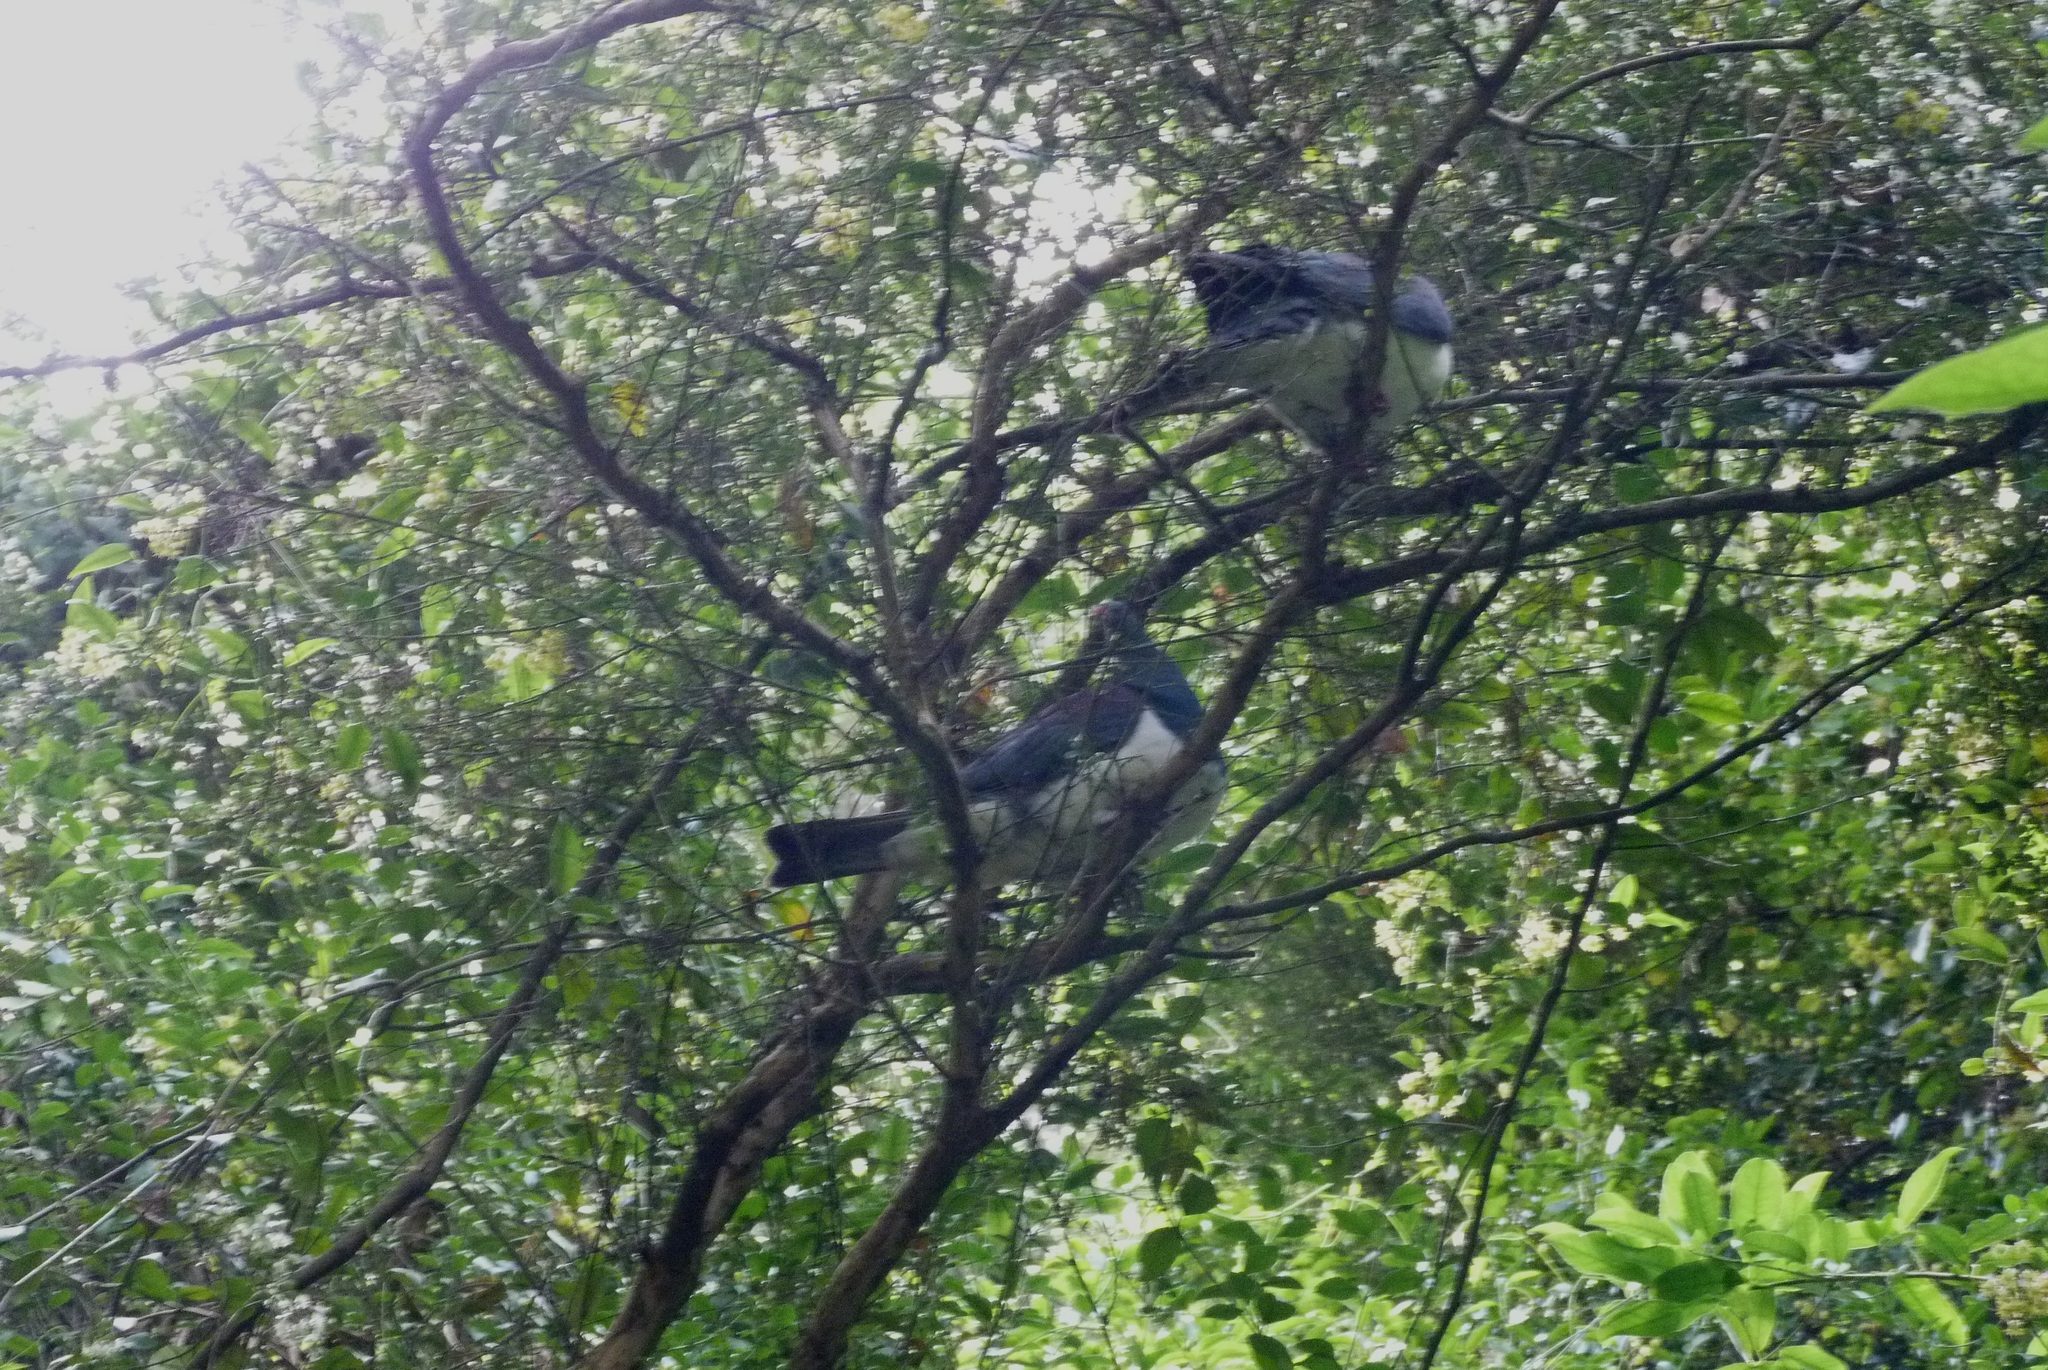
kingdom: Animalia
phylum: Chordata
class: Aves
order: Columbiformes
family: Columbidae
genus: Hemiphaga
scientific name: Hemiphaga novaeseelandiae
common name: New zealand pigeon
